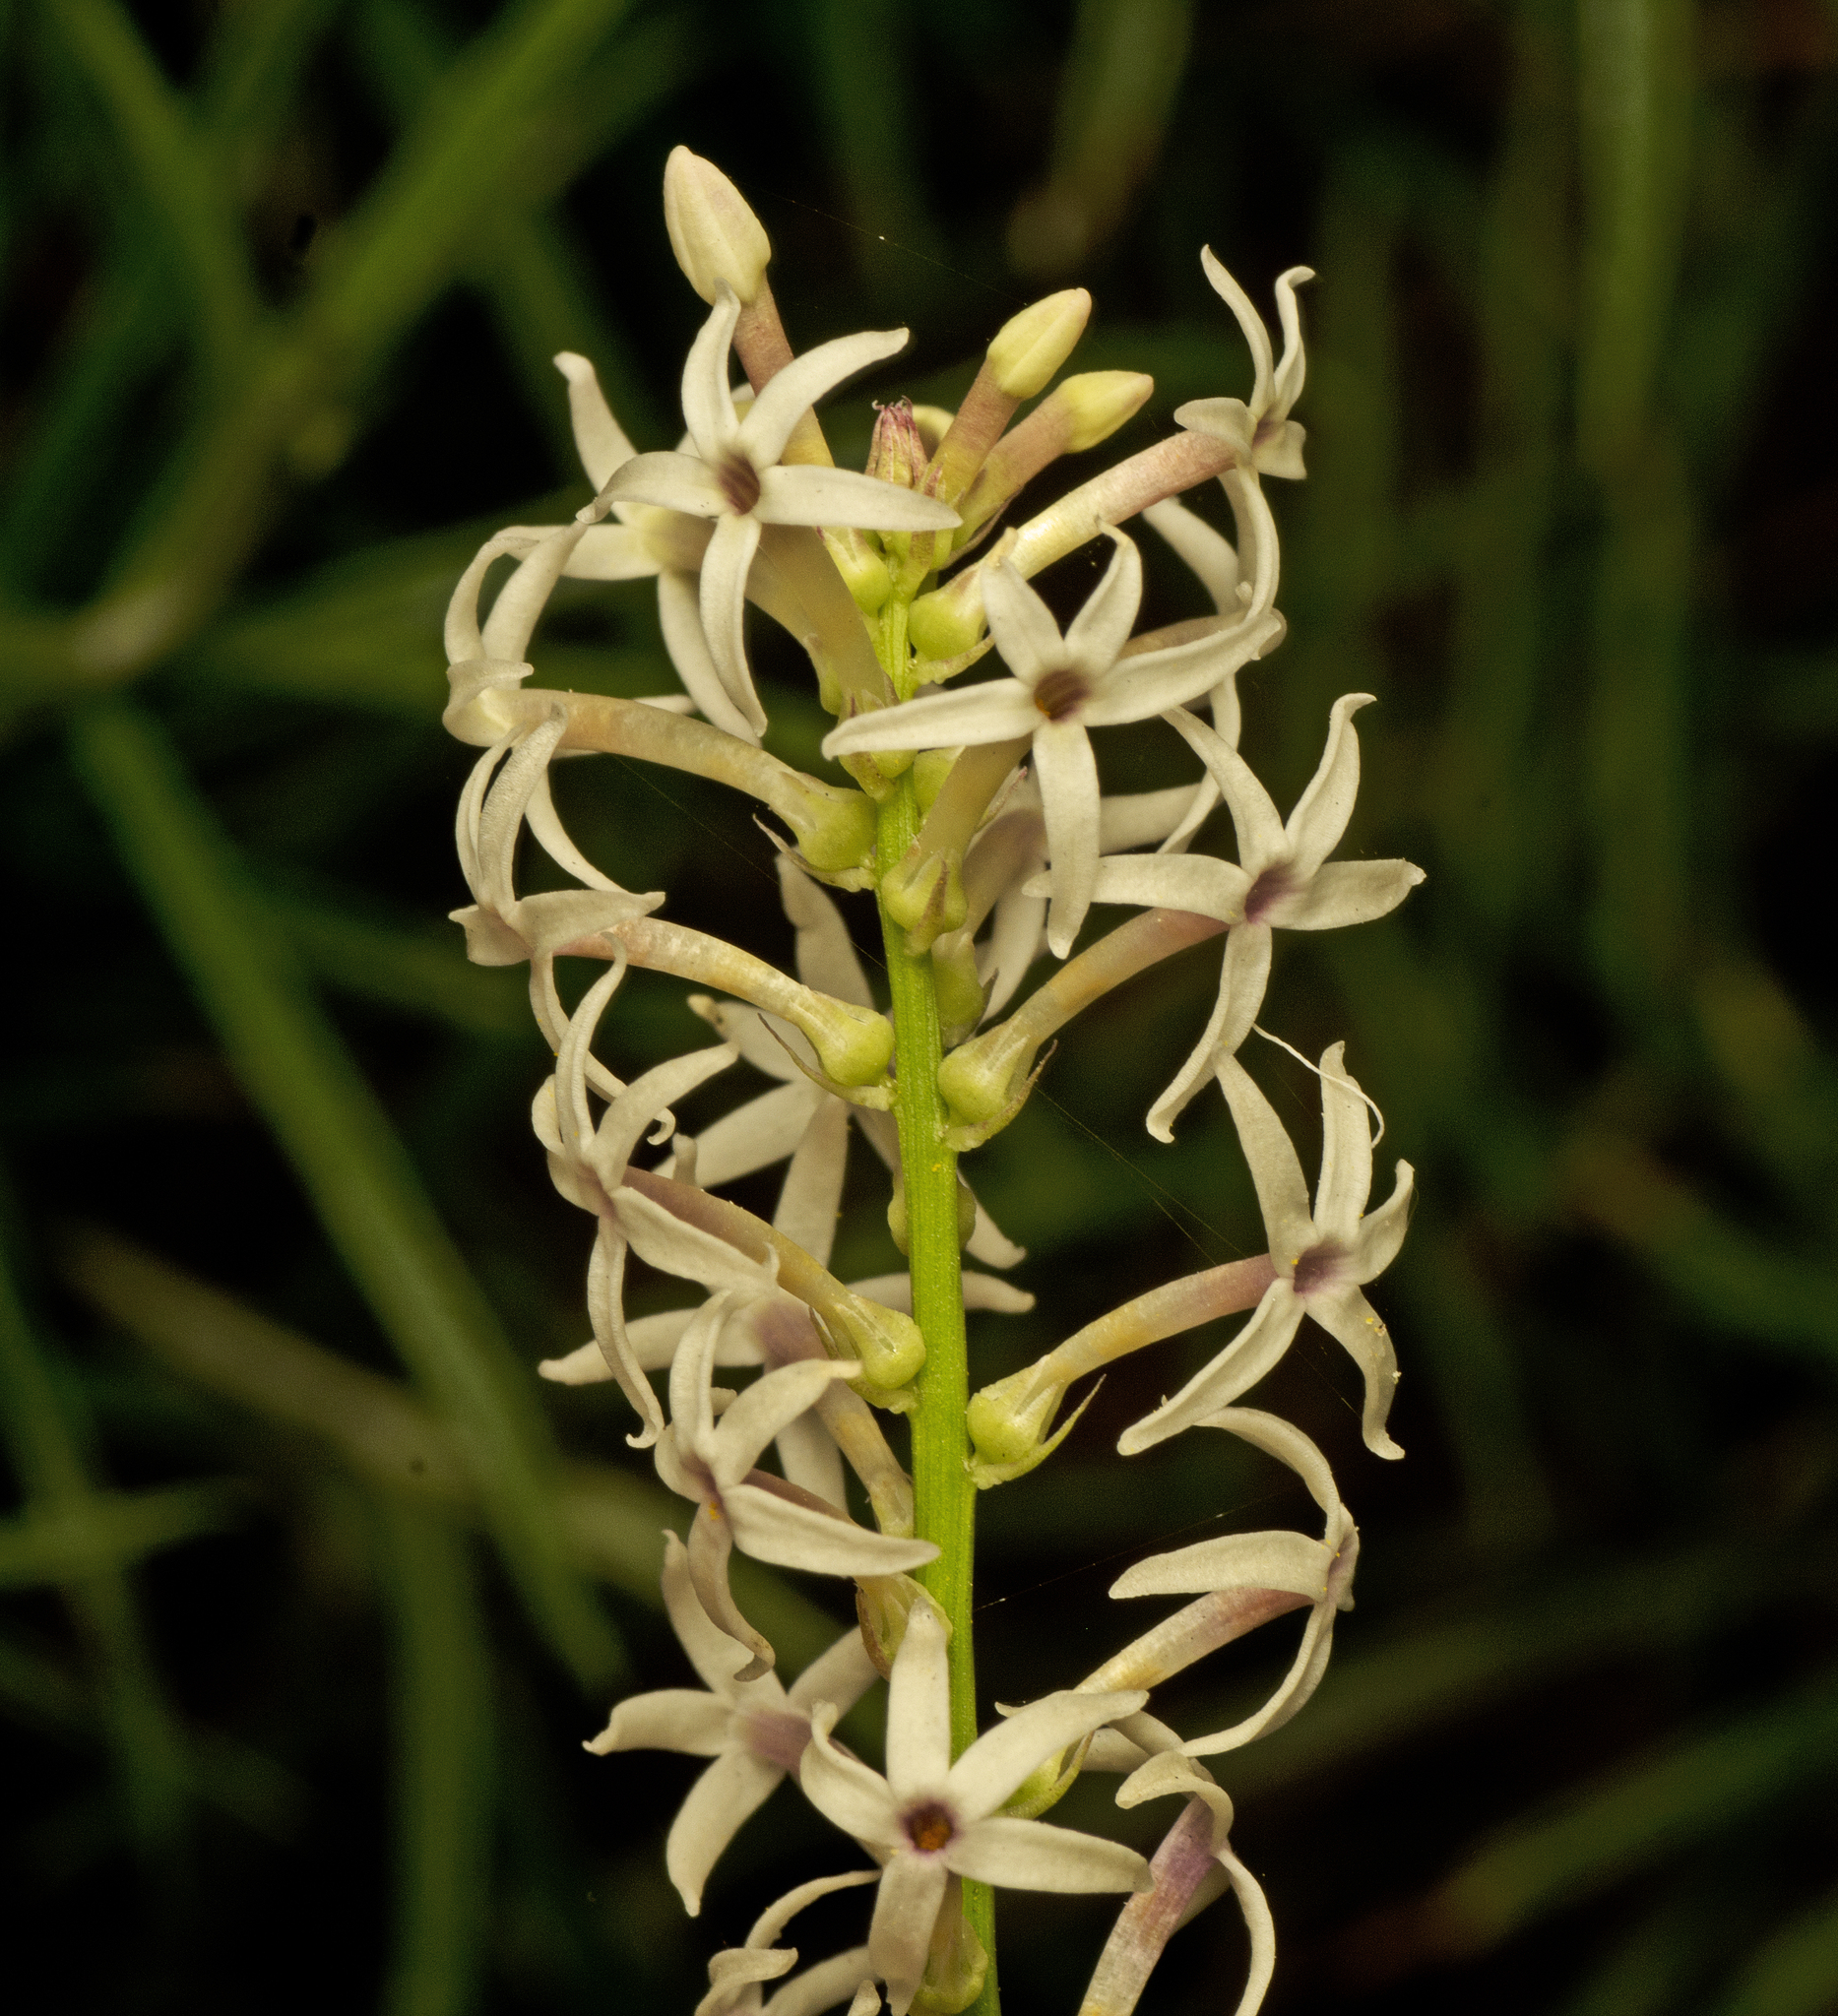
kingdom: Plantae
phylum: Tracheophyta
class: Magnoliopsida
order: Celastrales
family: Celastraceae
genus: Stackhousia
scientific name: Stackhousia monogyna
